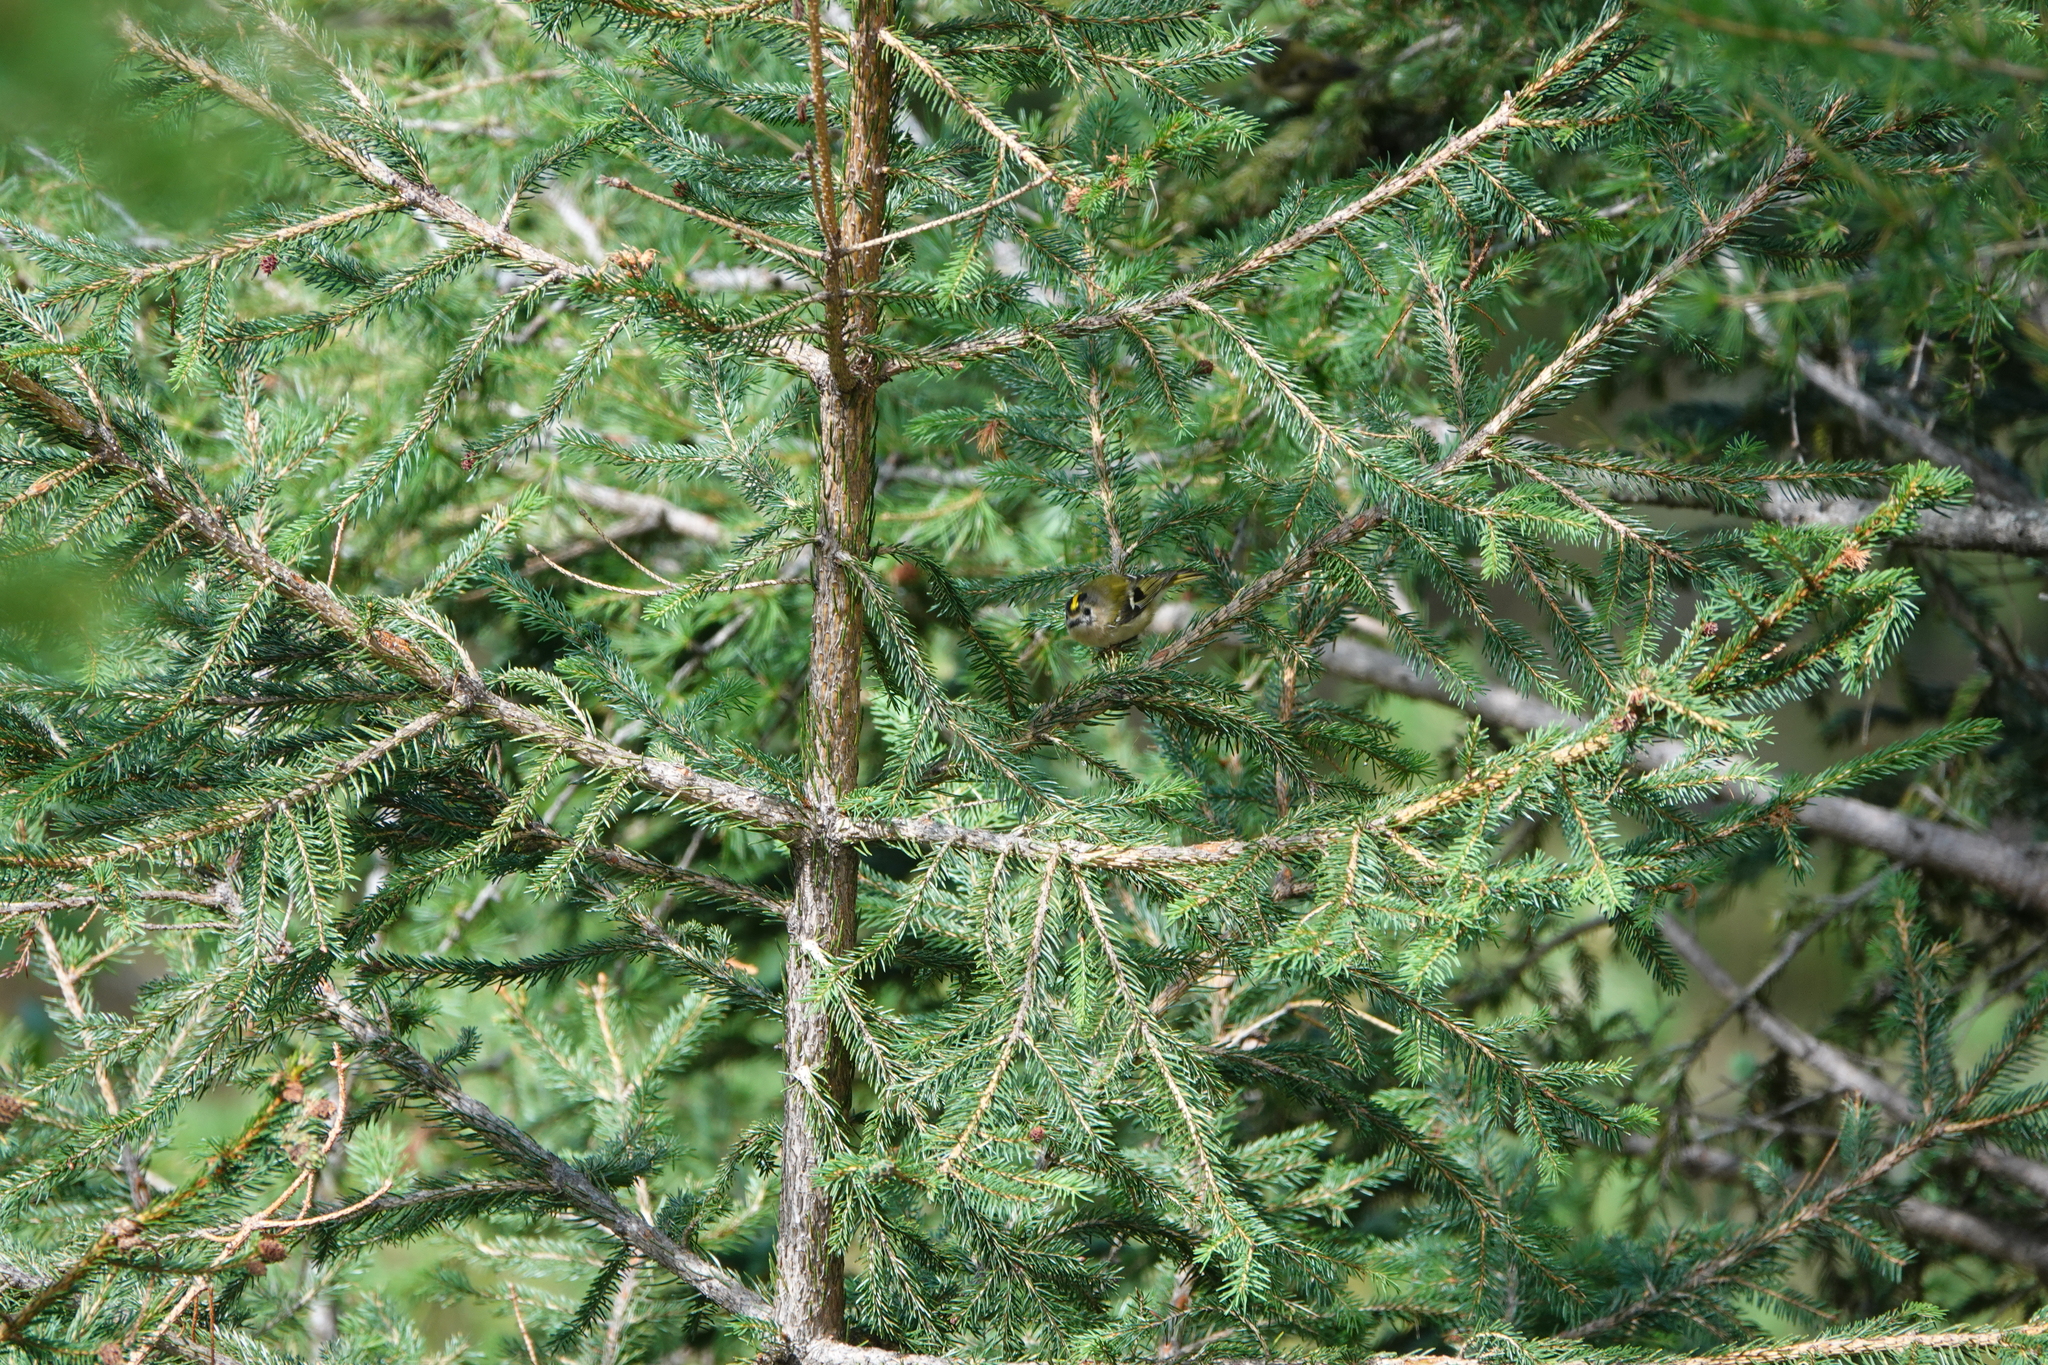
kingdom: Animalia
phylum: Chordata
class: Aves
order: Passeriformes
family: Regulidae
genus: Regulus
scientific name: Regulus regulus
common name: Goldcrest
